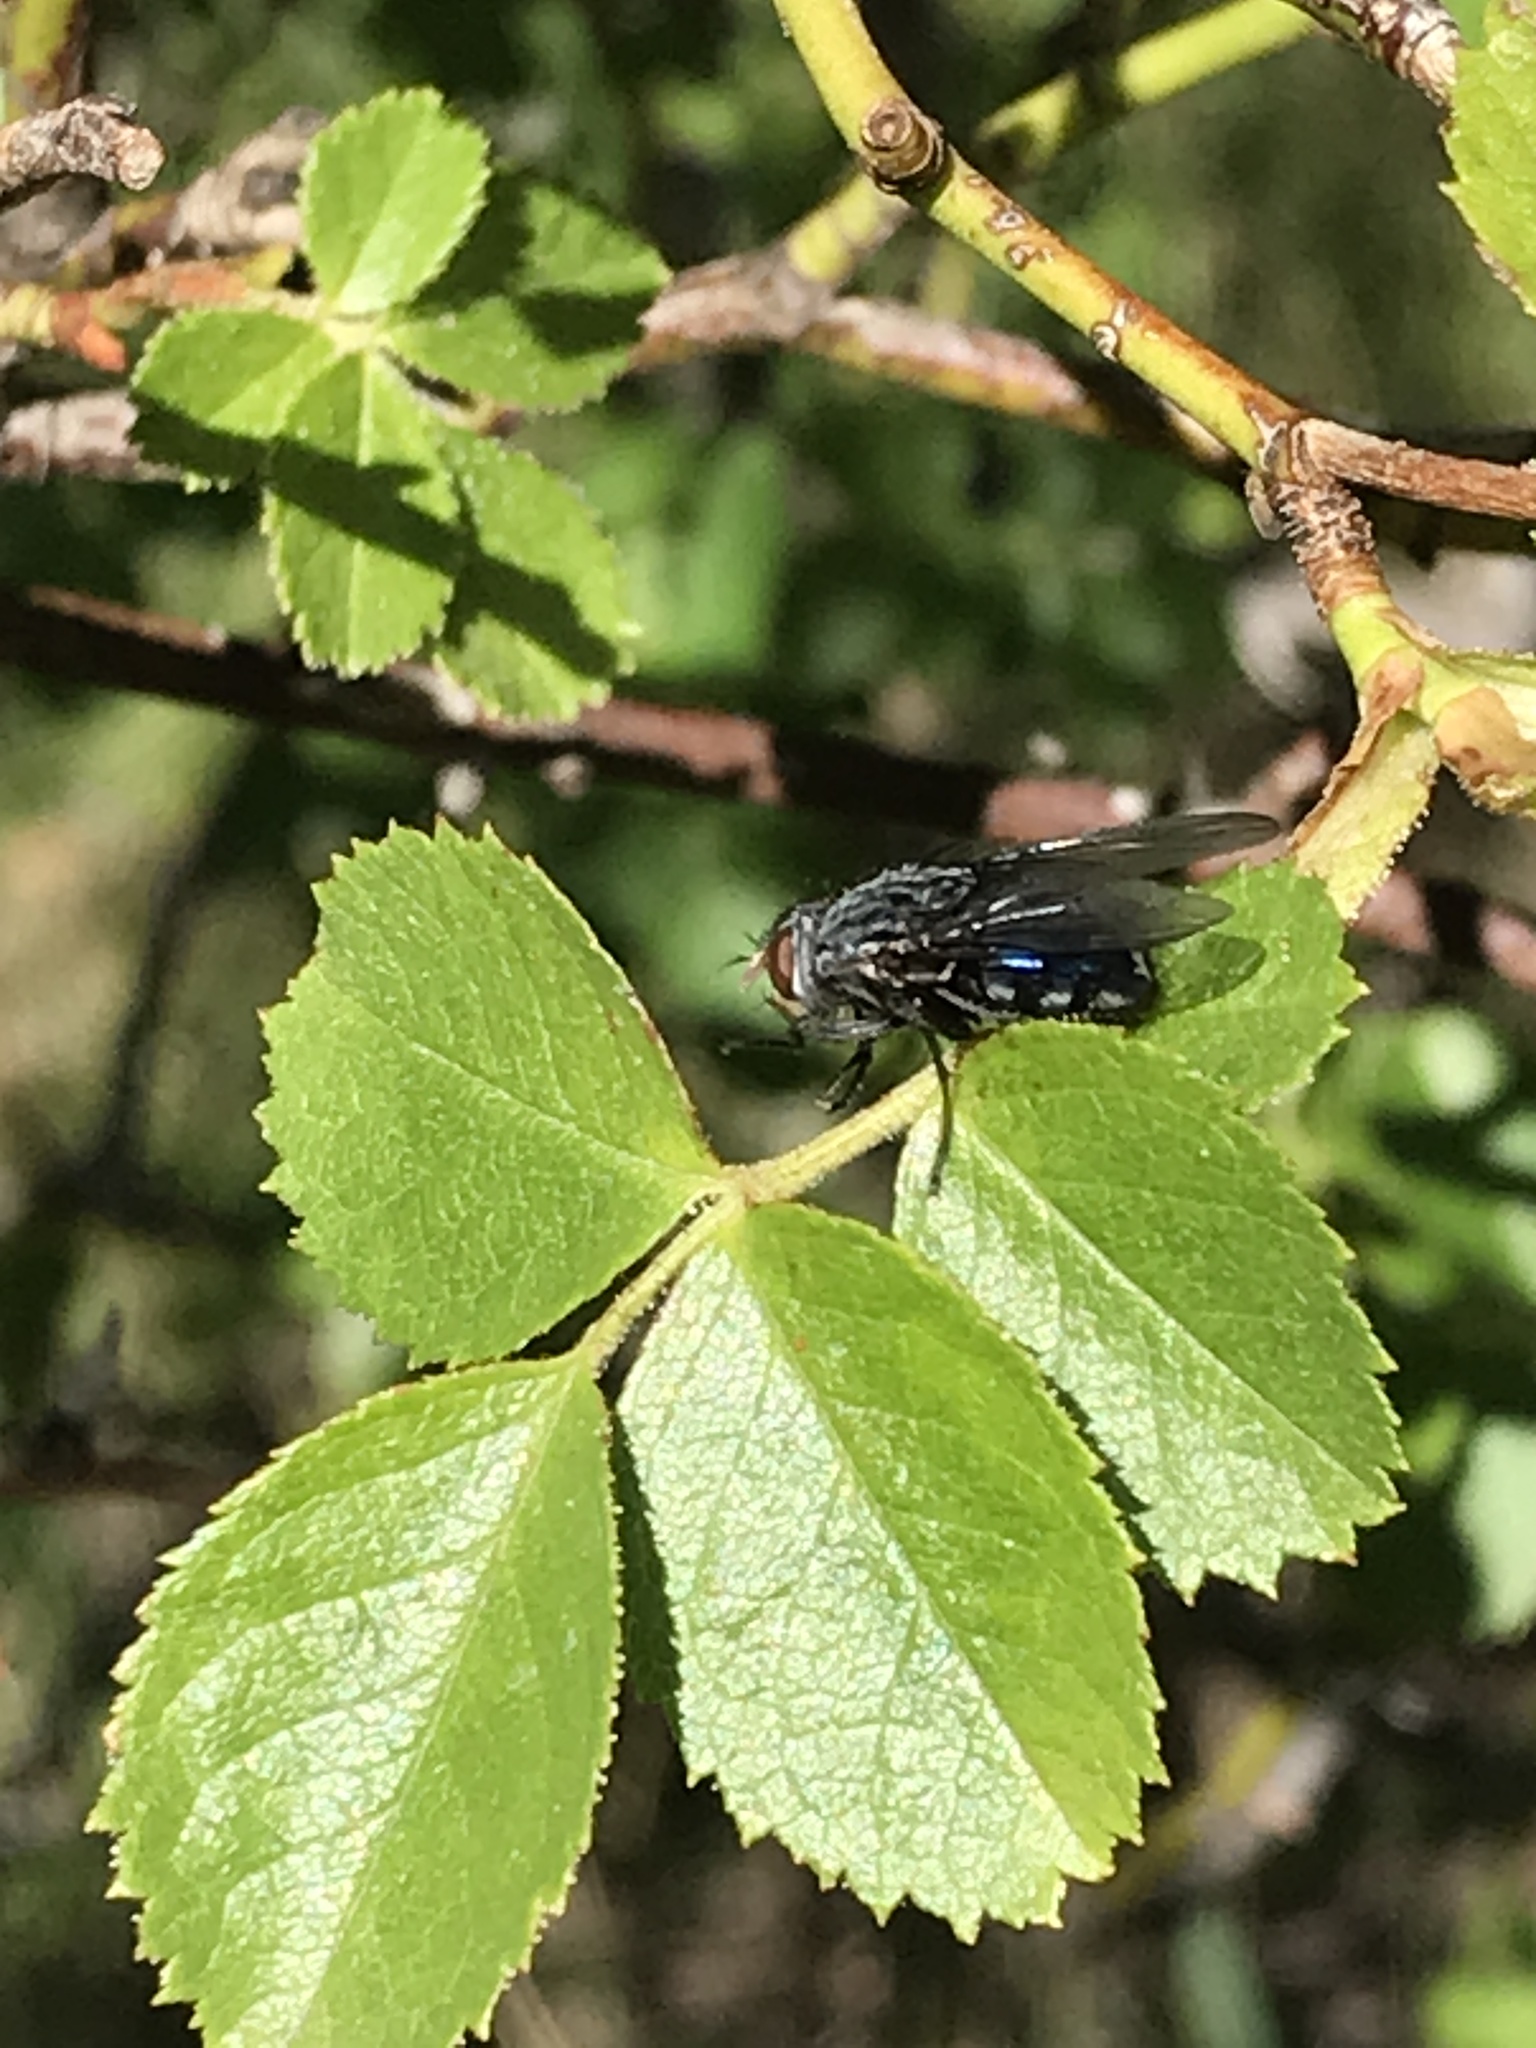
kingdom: Animalia
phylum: Arthropoda
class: Insecta
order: Diptera
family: Calliphoridae
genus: Calliphora
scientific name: Calliphora vicina
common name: Common blow flie
